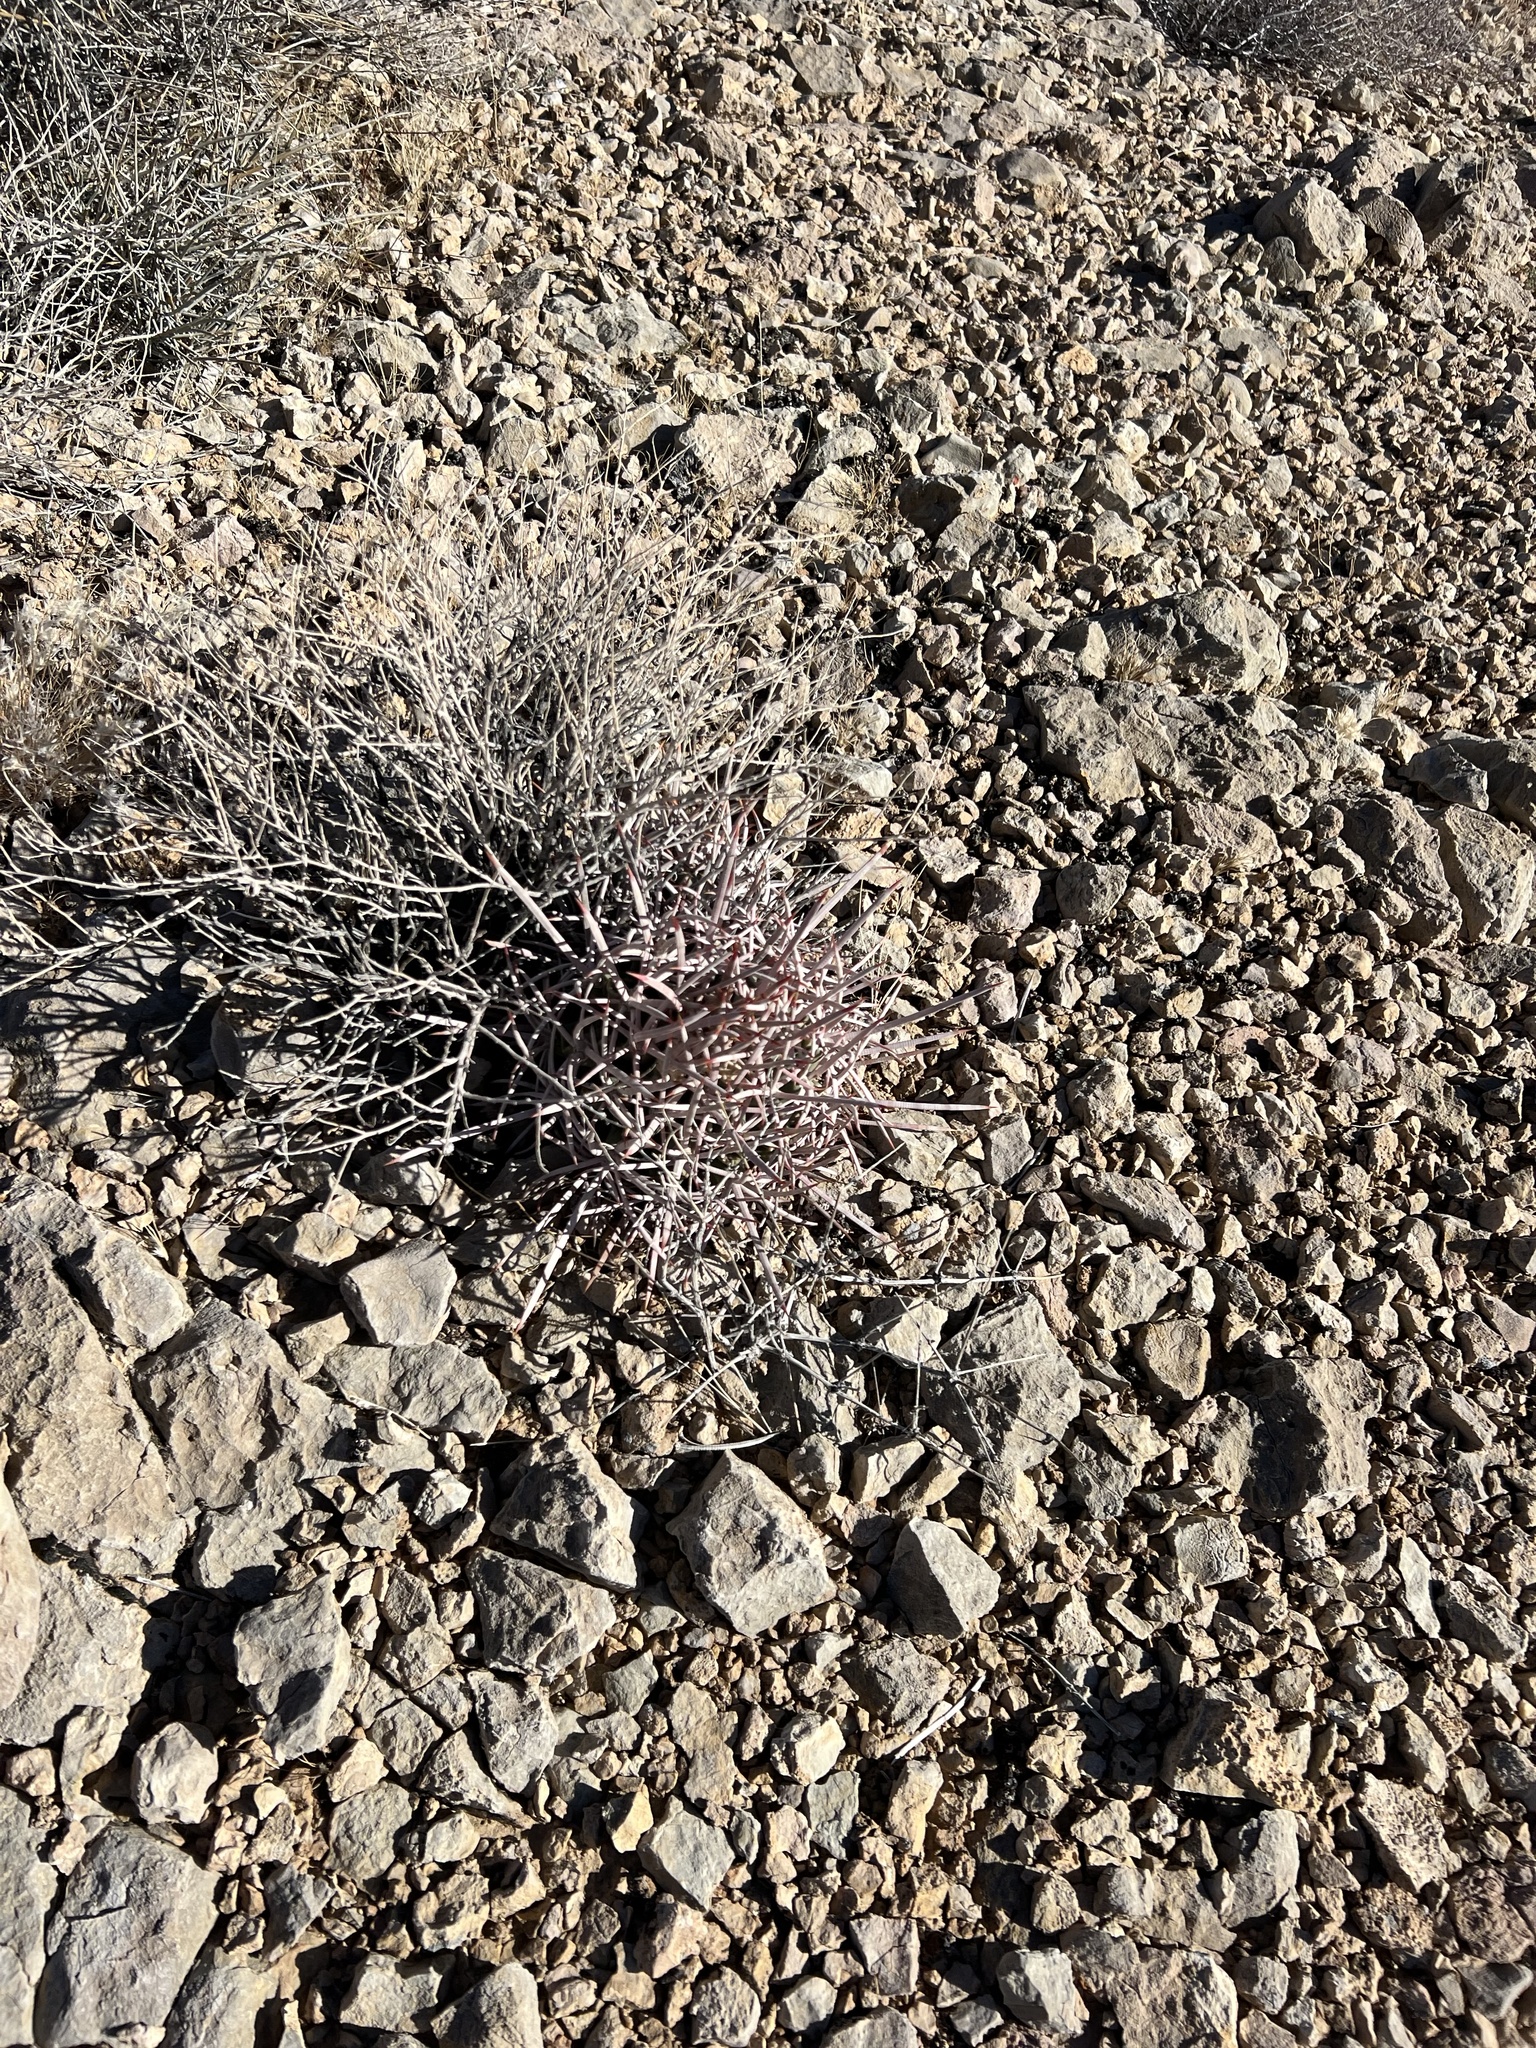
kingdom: Plantae
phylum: Tracheophyta
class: Magnoliopsida
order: Caryophyllales
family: Cactaceae
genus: Echinocactus
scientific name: Echinocactus polycephalus
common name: Cottontop cactus
